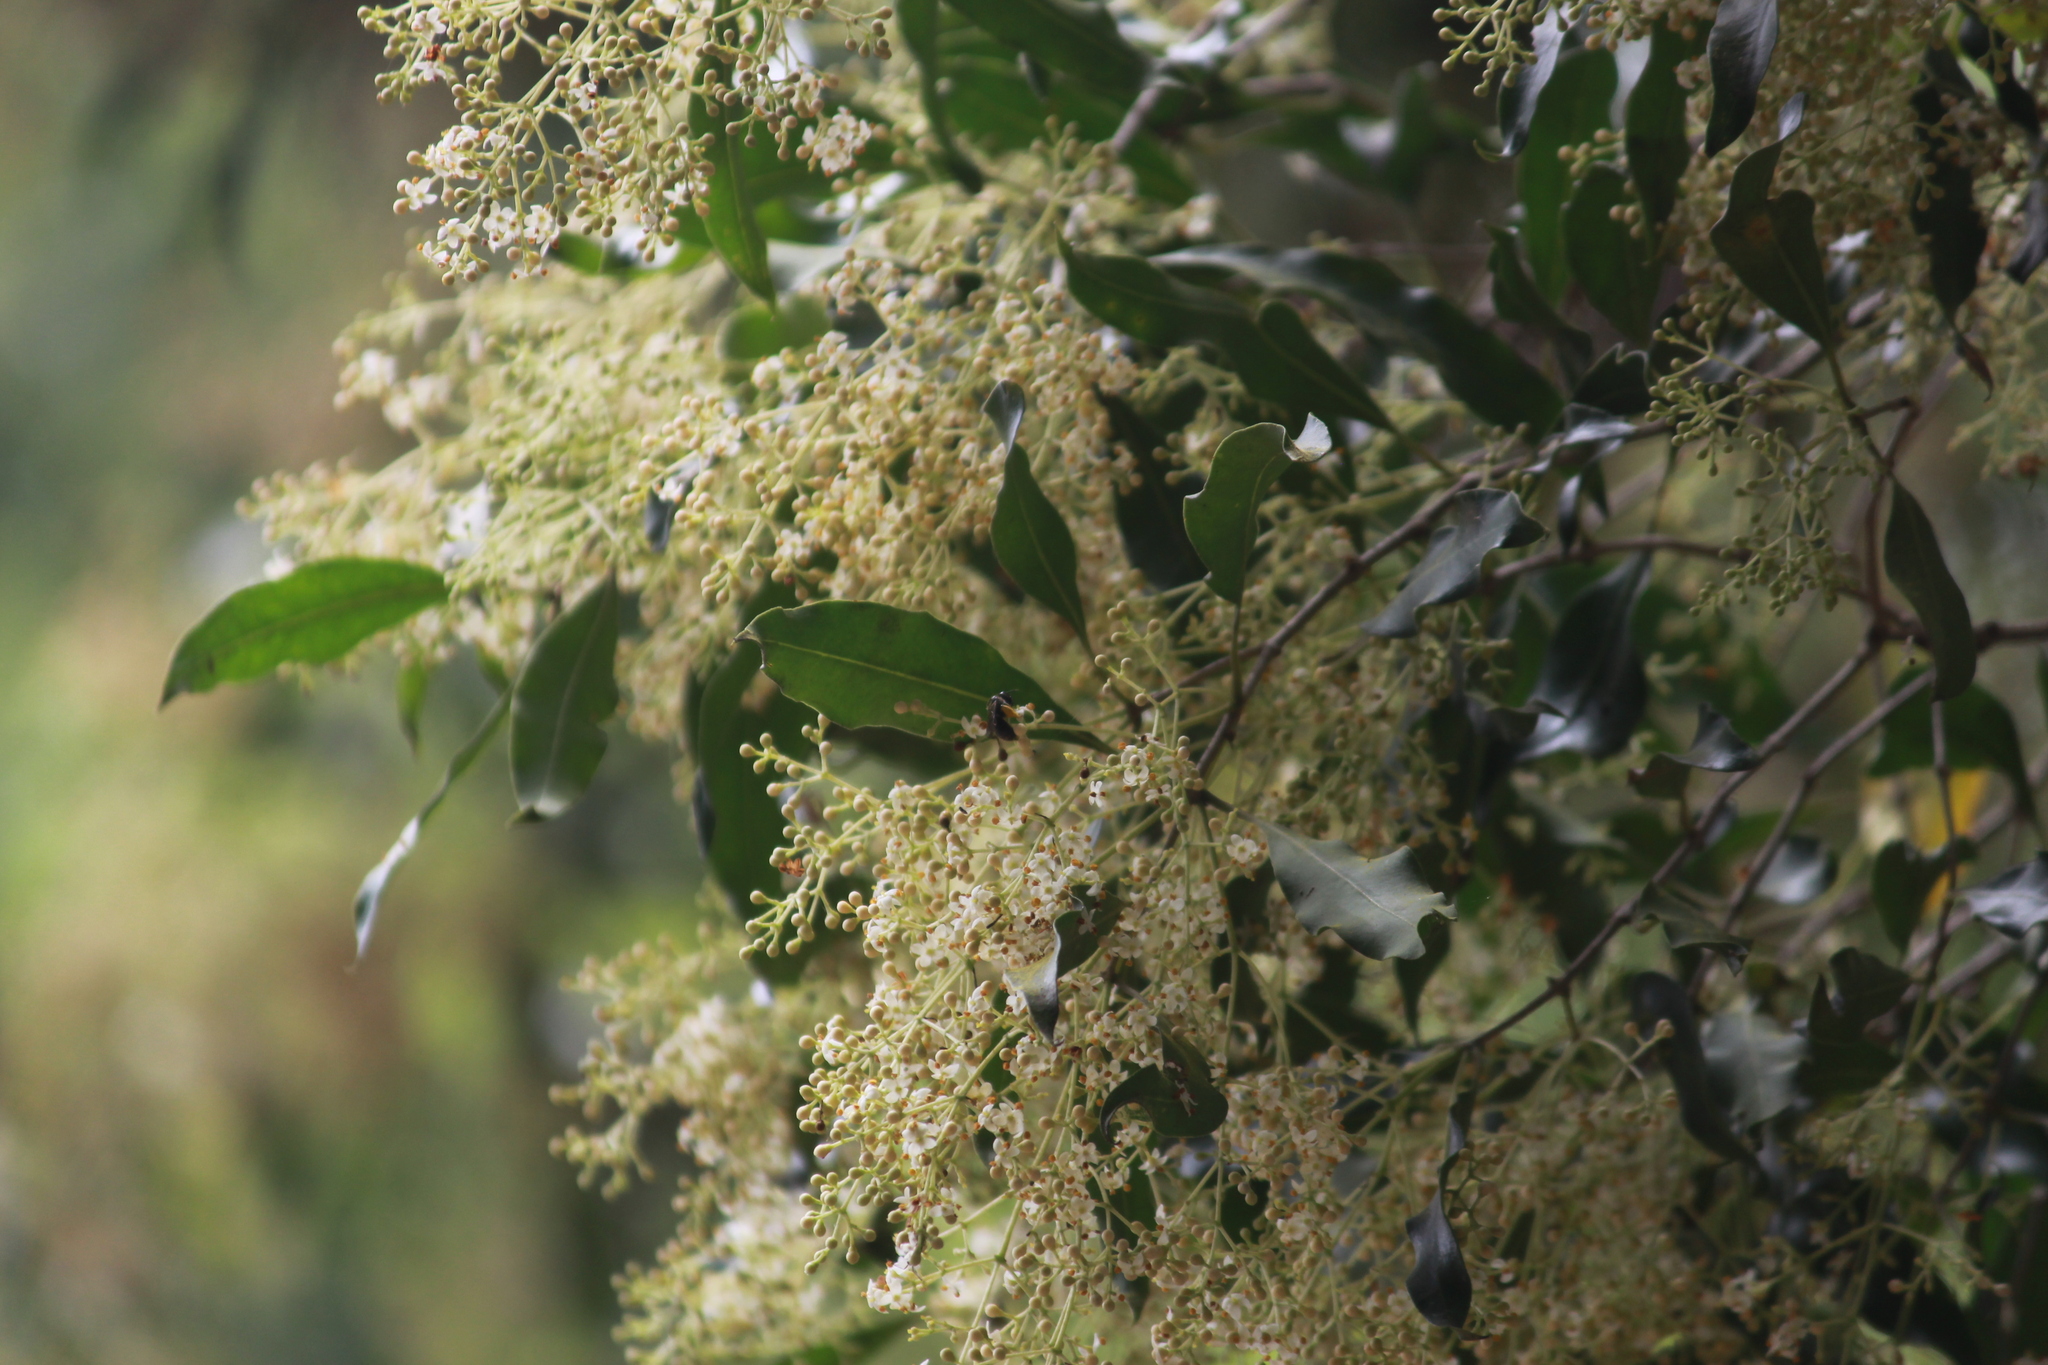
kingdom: Plantae
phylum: Tracheophyta
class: Magnoliopsida
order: Lamiales
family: Oleaceae
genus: Olea
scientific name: Olea woodiana
